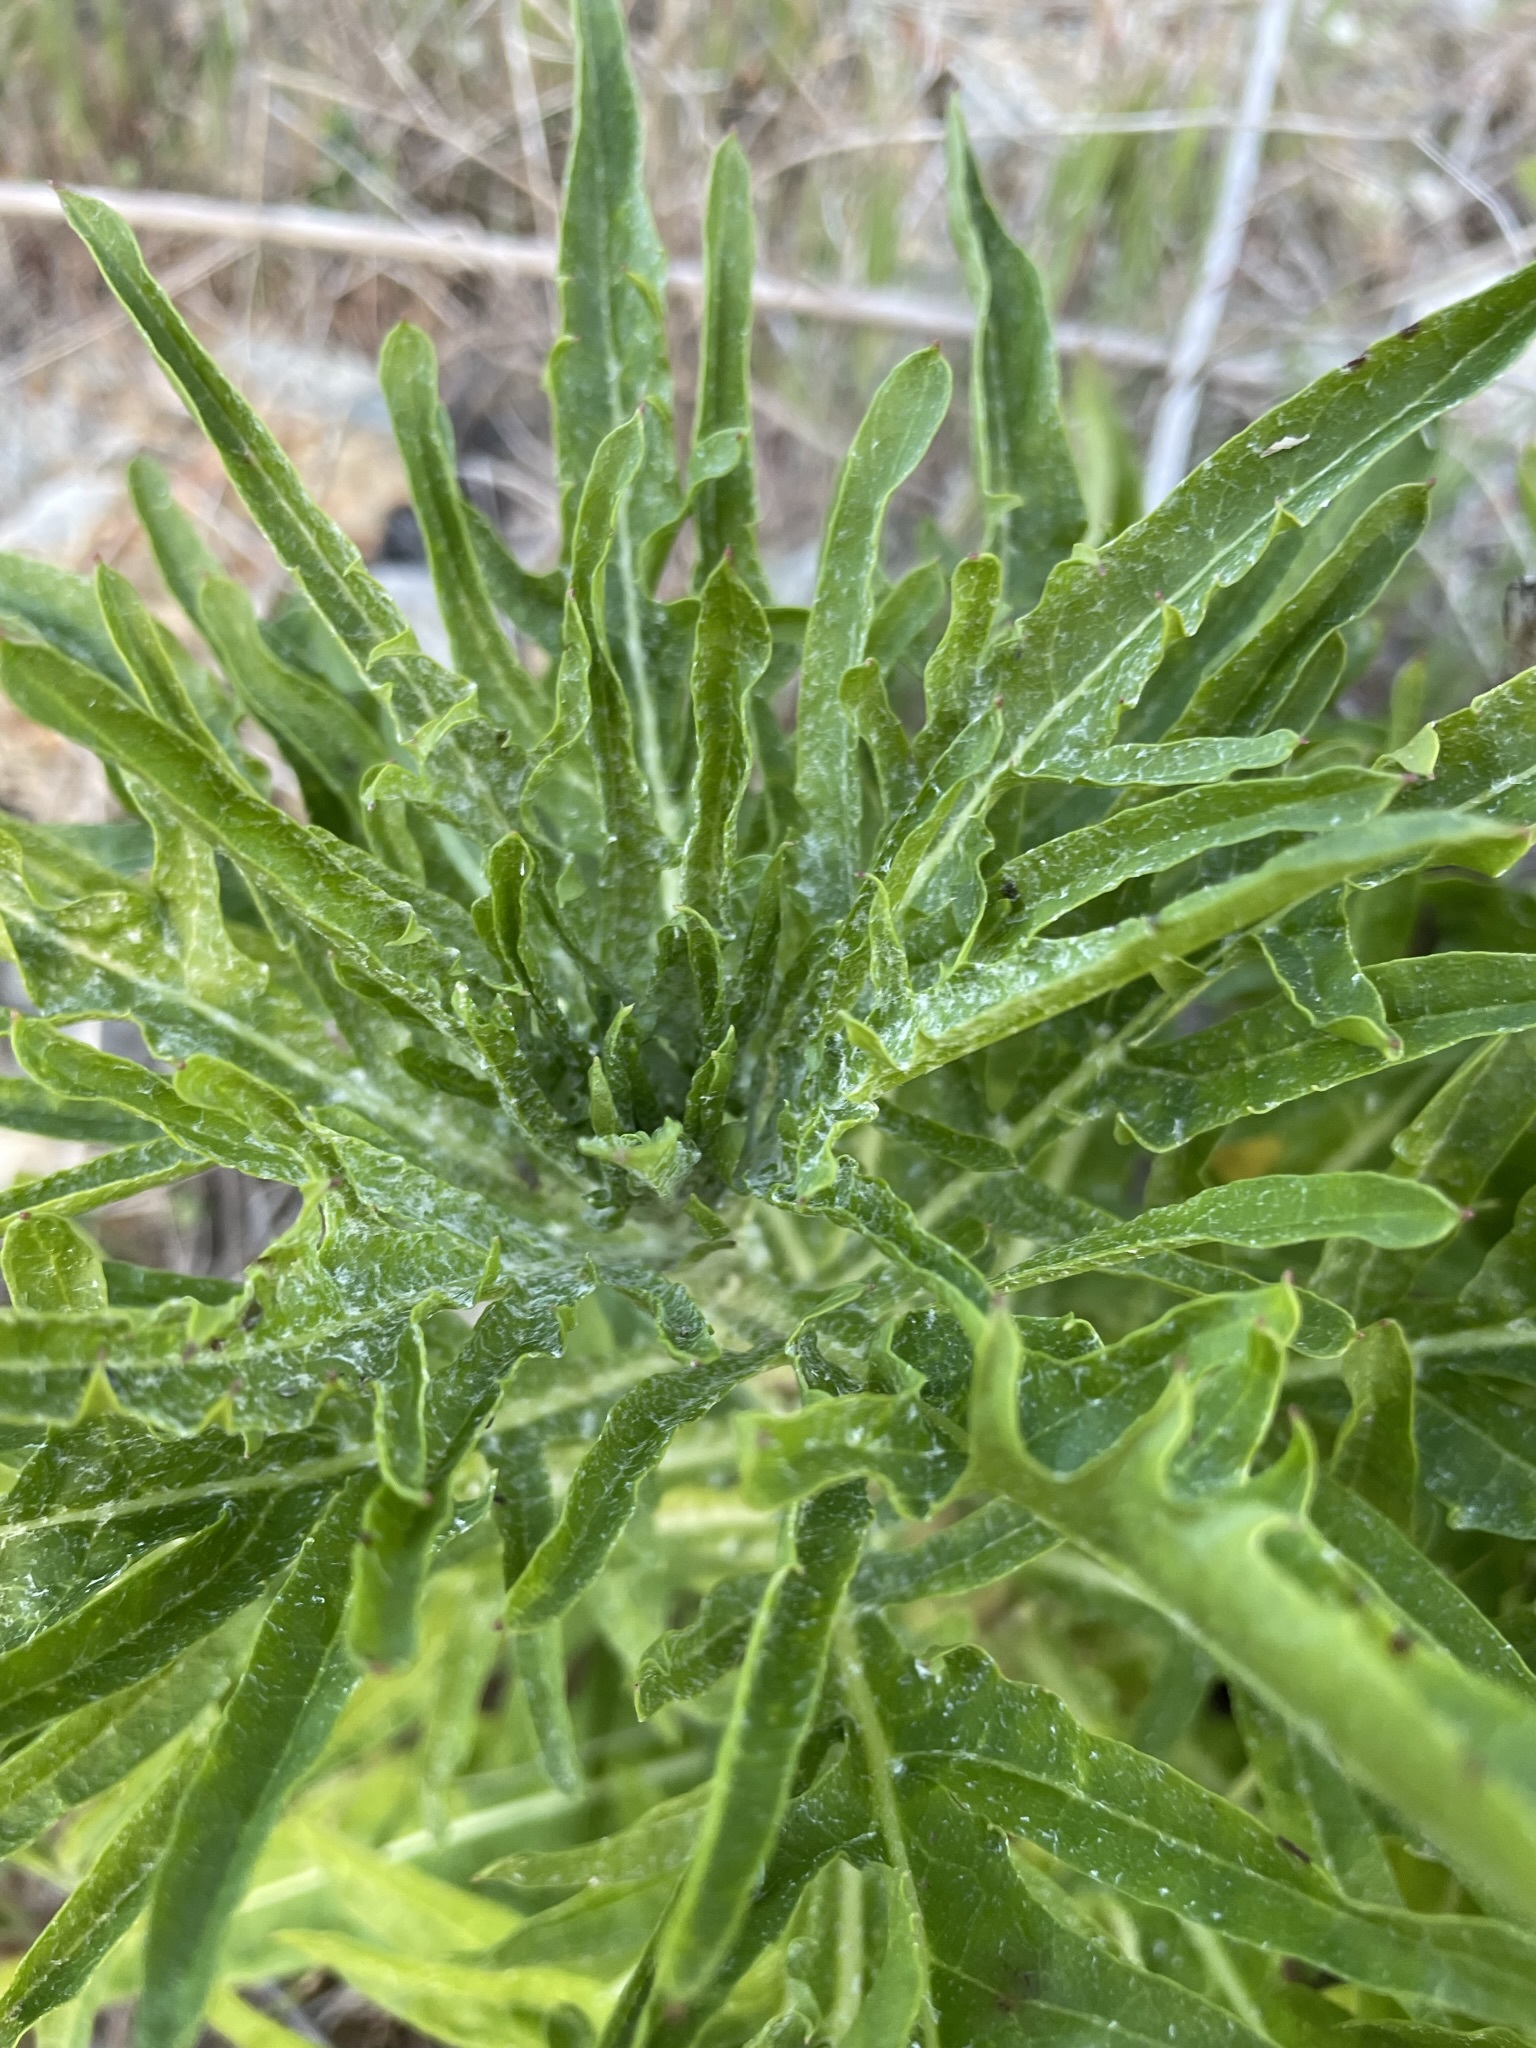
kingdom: Plantae
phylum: Tracheophyta
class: Magnoliopsida
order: Asterales
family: Asteraceae
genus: Malacothrix
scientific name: Malacothrix saxatilis
